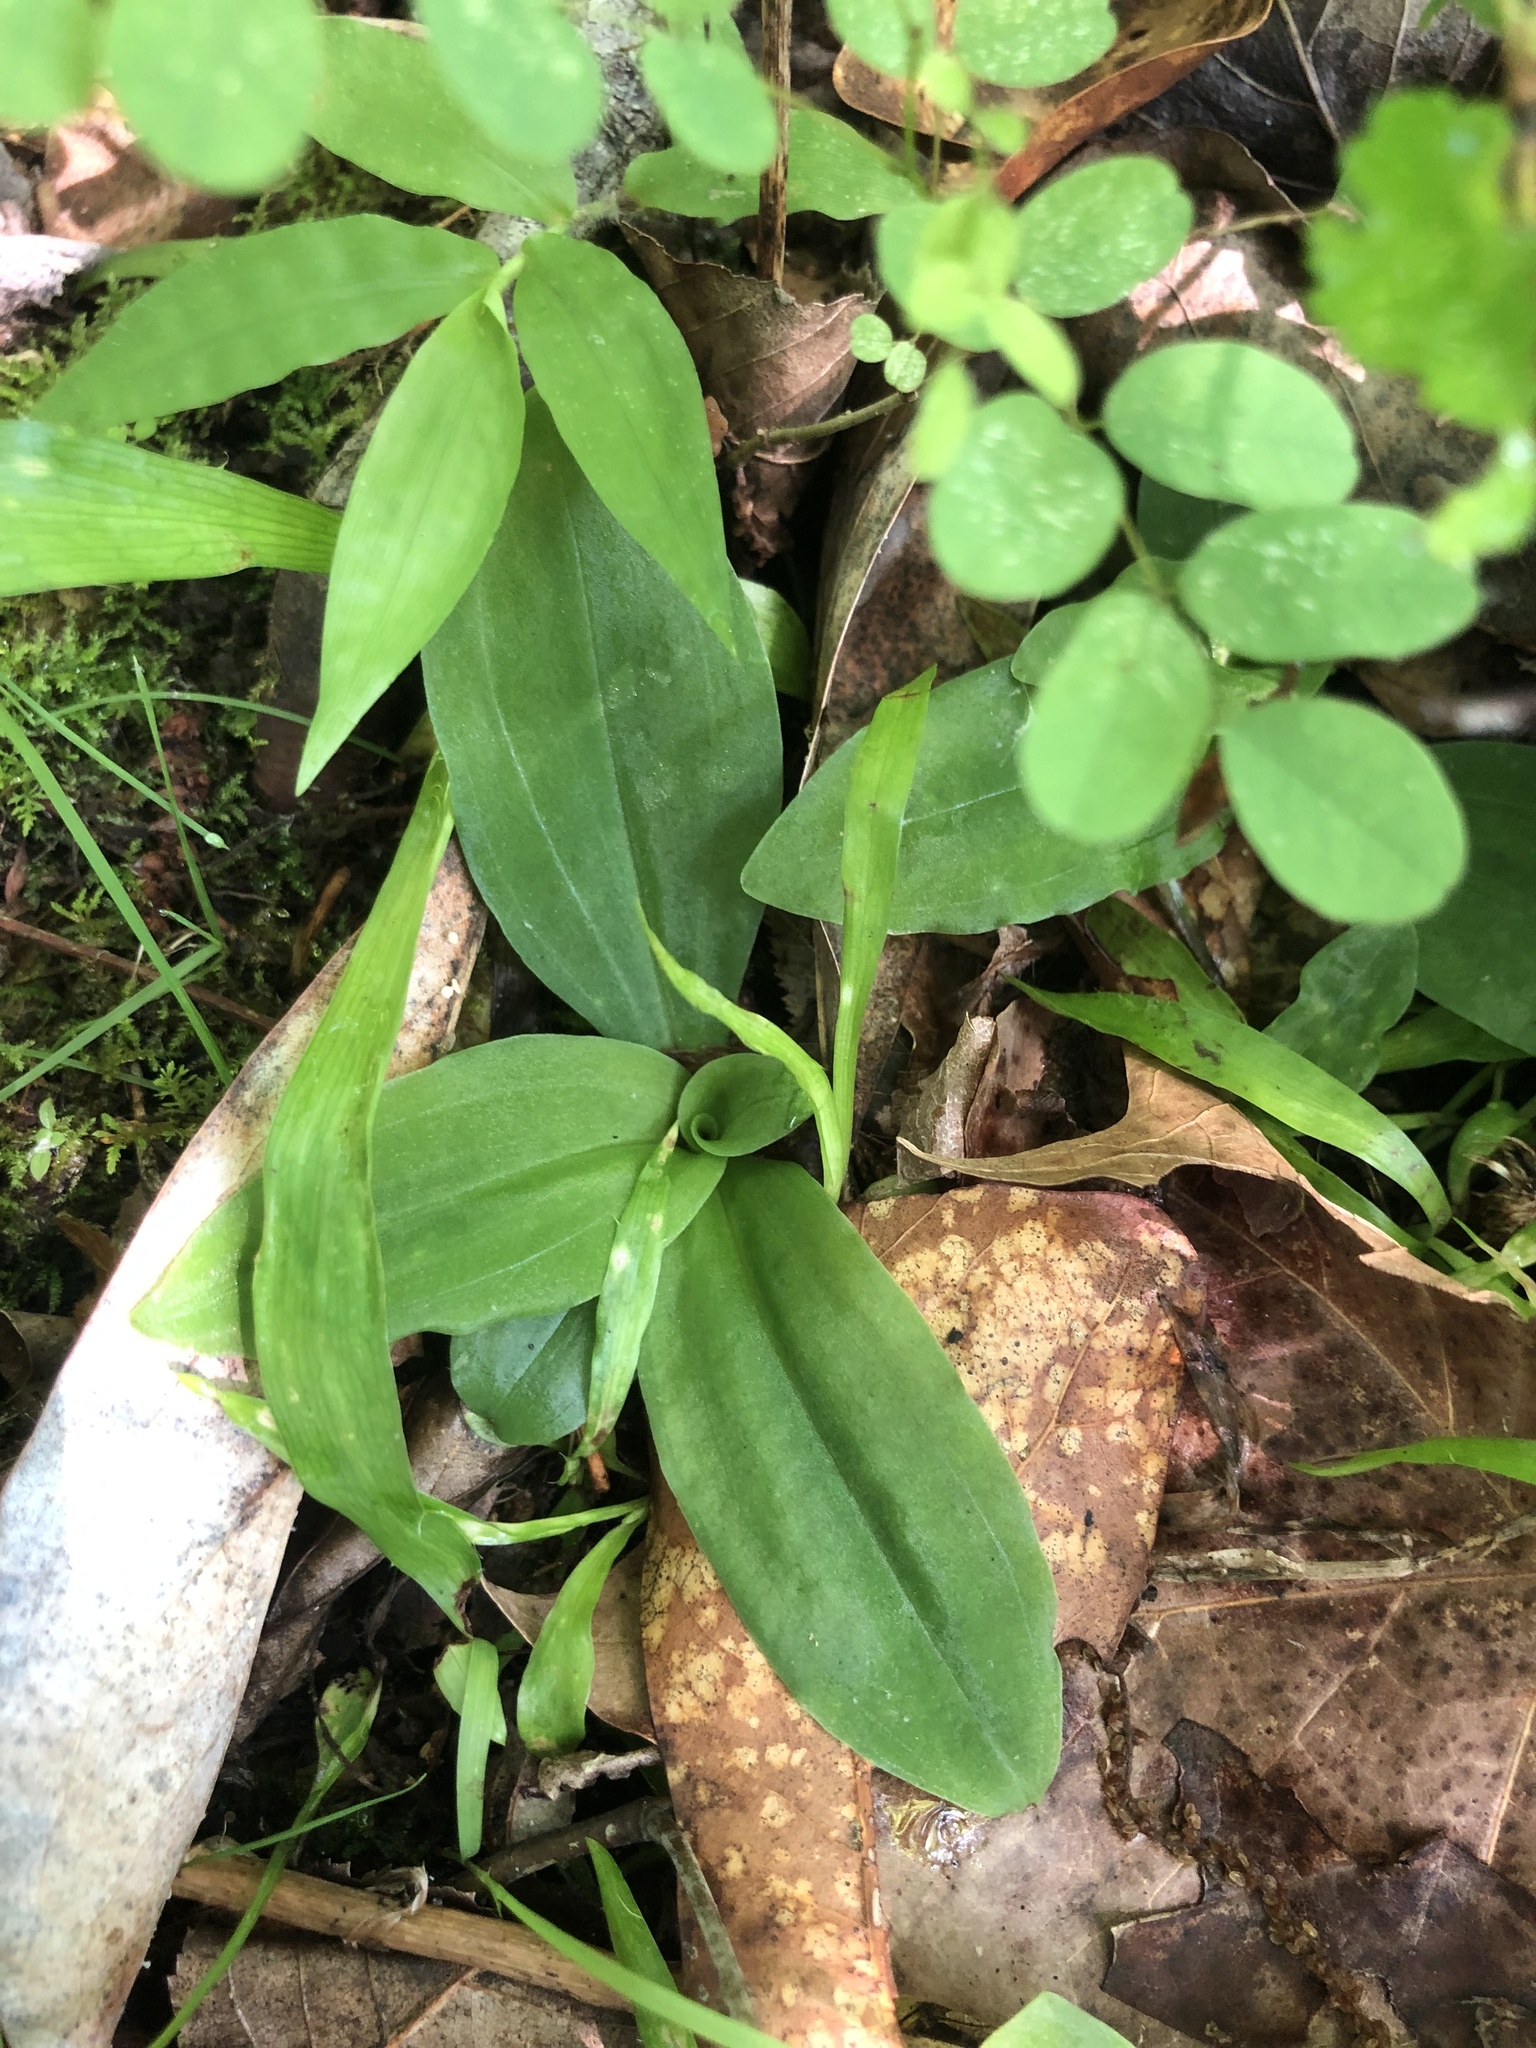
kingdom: Plantae
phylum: Tracheophyta
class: Liliopsida
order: Asparagales
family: Orchidaceae
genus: Ponthieva
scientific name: Ponthieva racemosa
